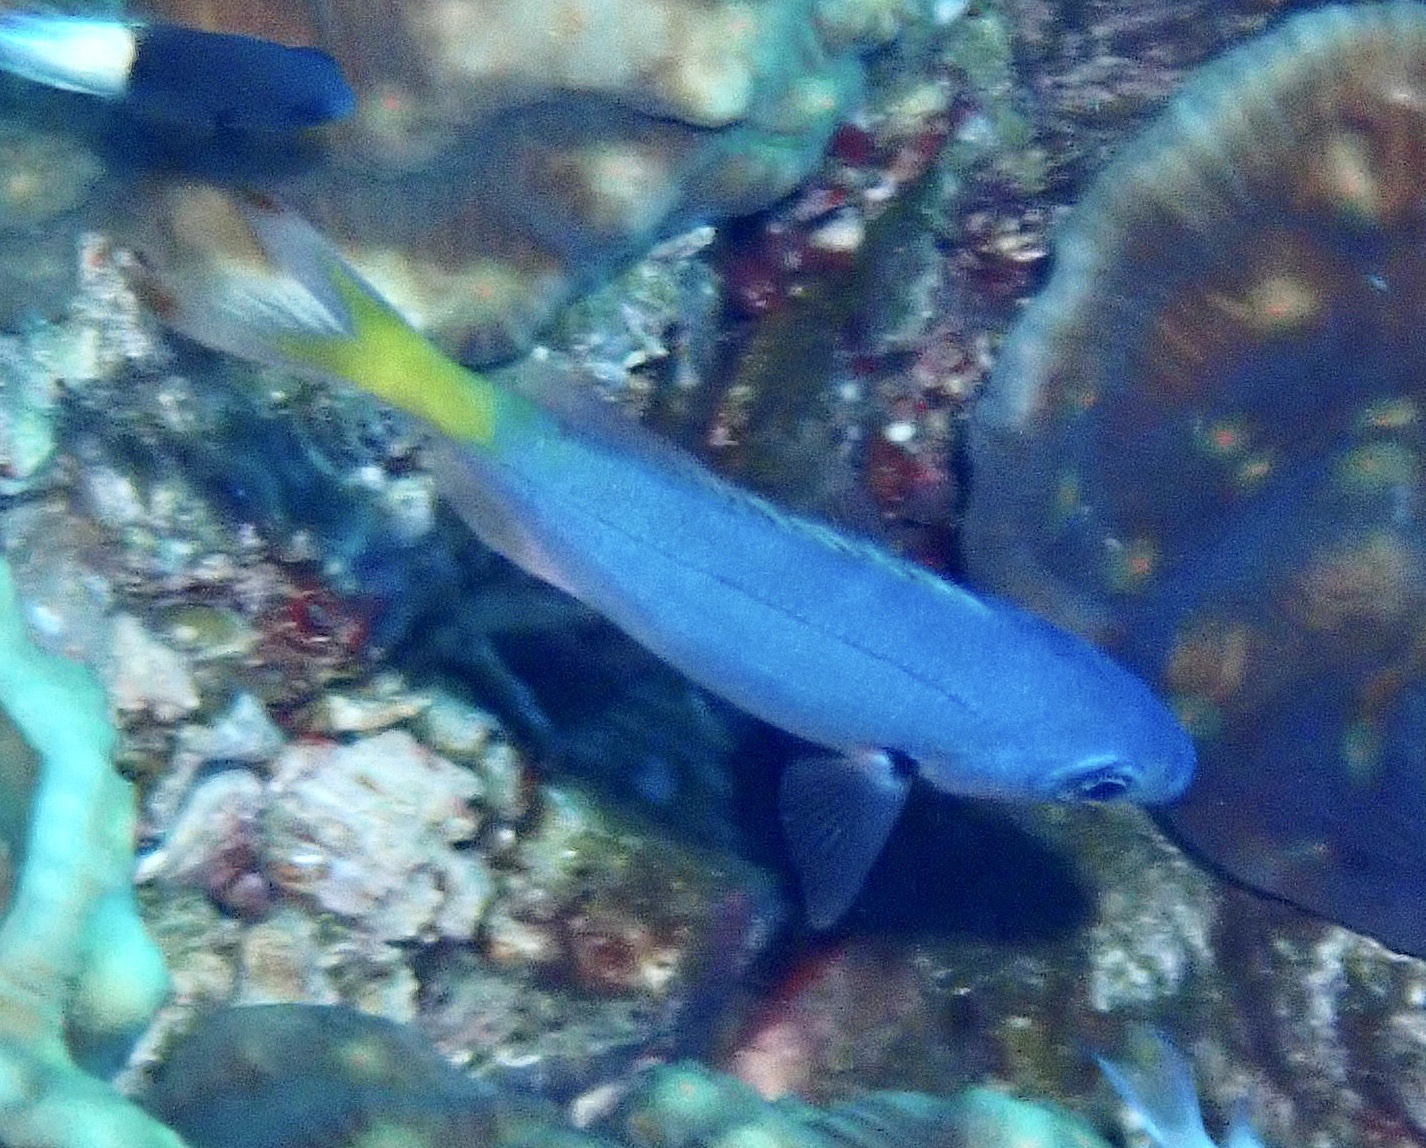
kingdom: Animalia
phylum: Chordata
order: Perciformes
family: Caesionidae
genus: Caesio
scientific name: Caesio lunaris
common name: Blue fusilier
